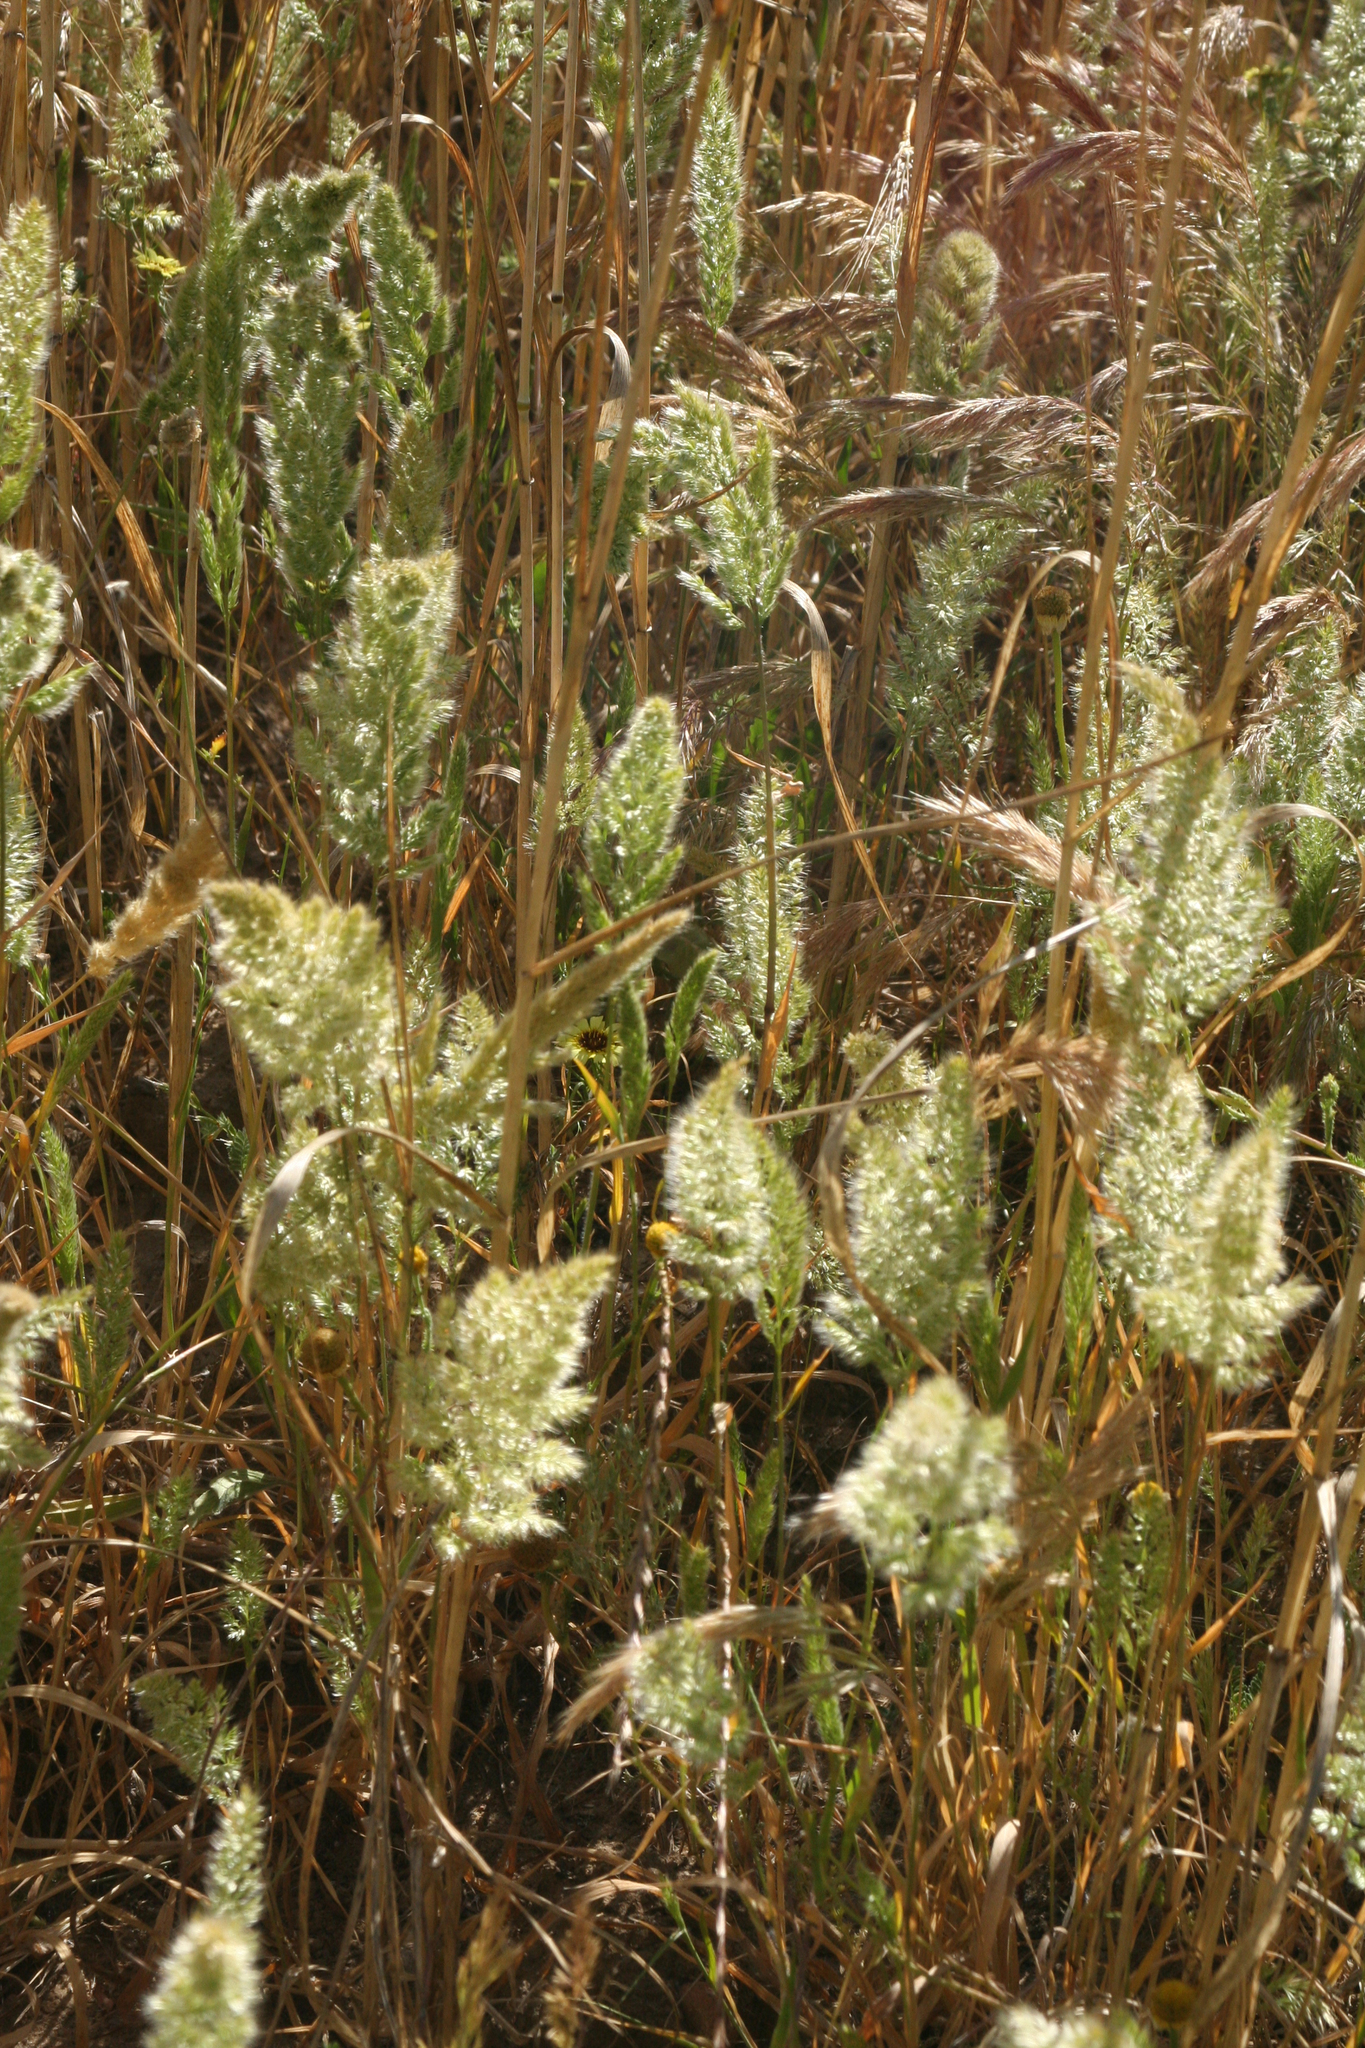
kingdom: Plantae
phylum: Tracheophyta
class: Liliopsida
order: Poales
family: Poaceae
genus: Polypogon
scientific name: Polypogon monspeliensis
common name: Annual rabbitsfoot grass
